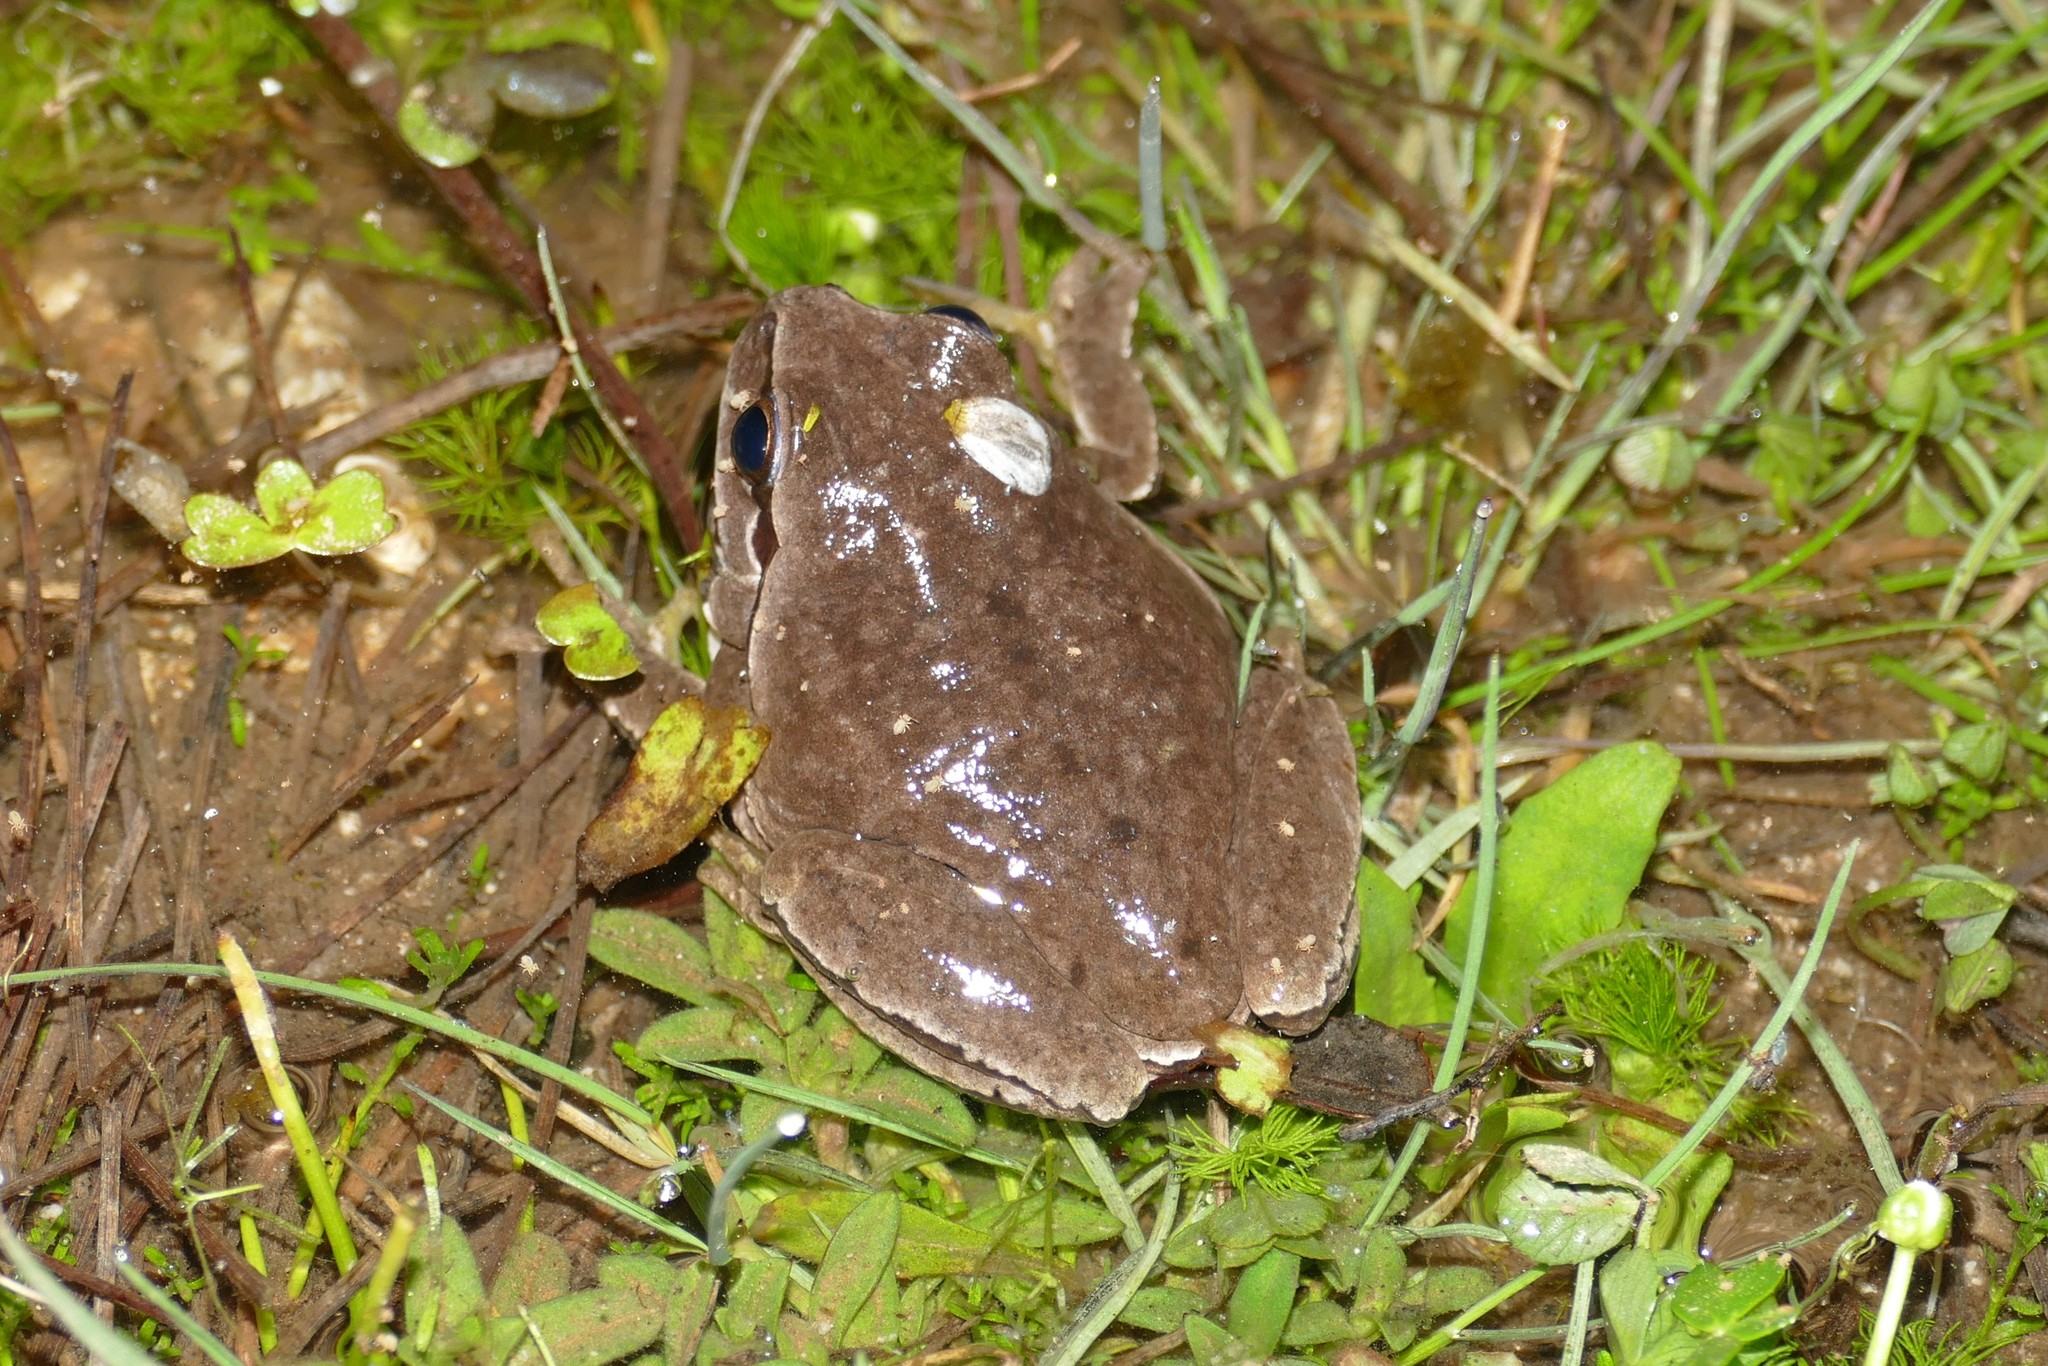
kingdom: Animalia
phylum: Chordata
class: Amphibia
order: Anura
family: Hylidae
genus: Hyla
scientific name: Hyla molleri
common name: Iberian tree frog
